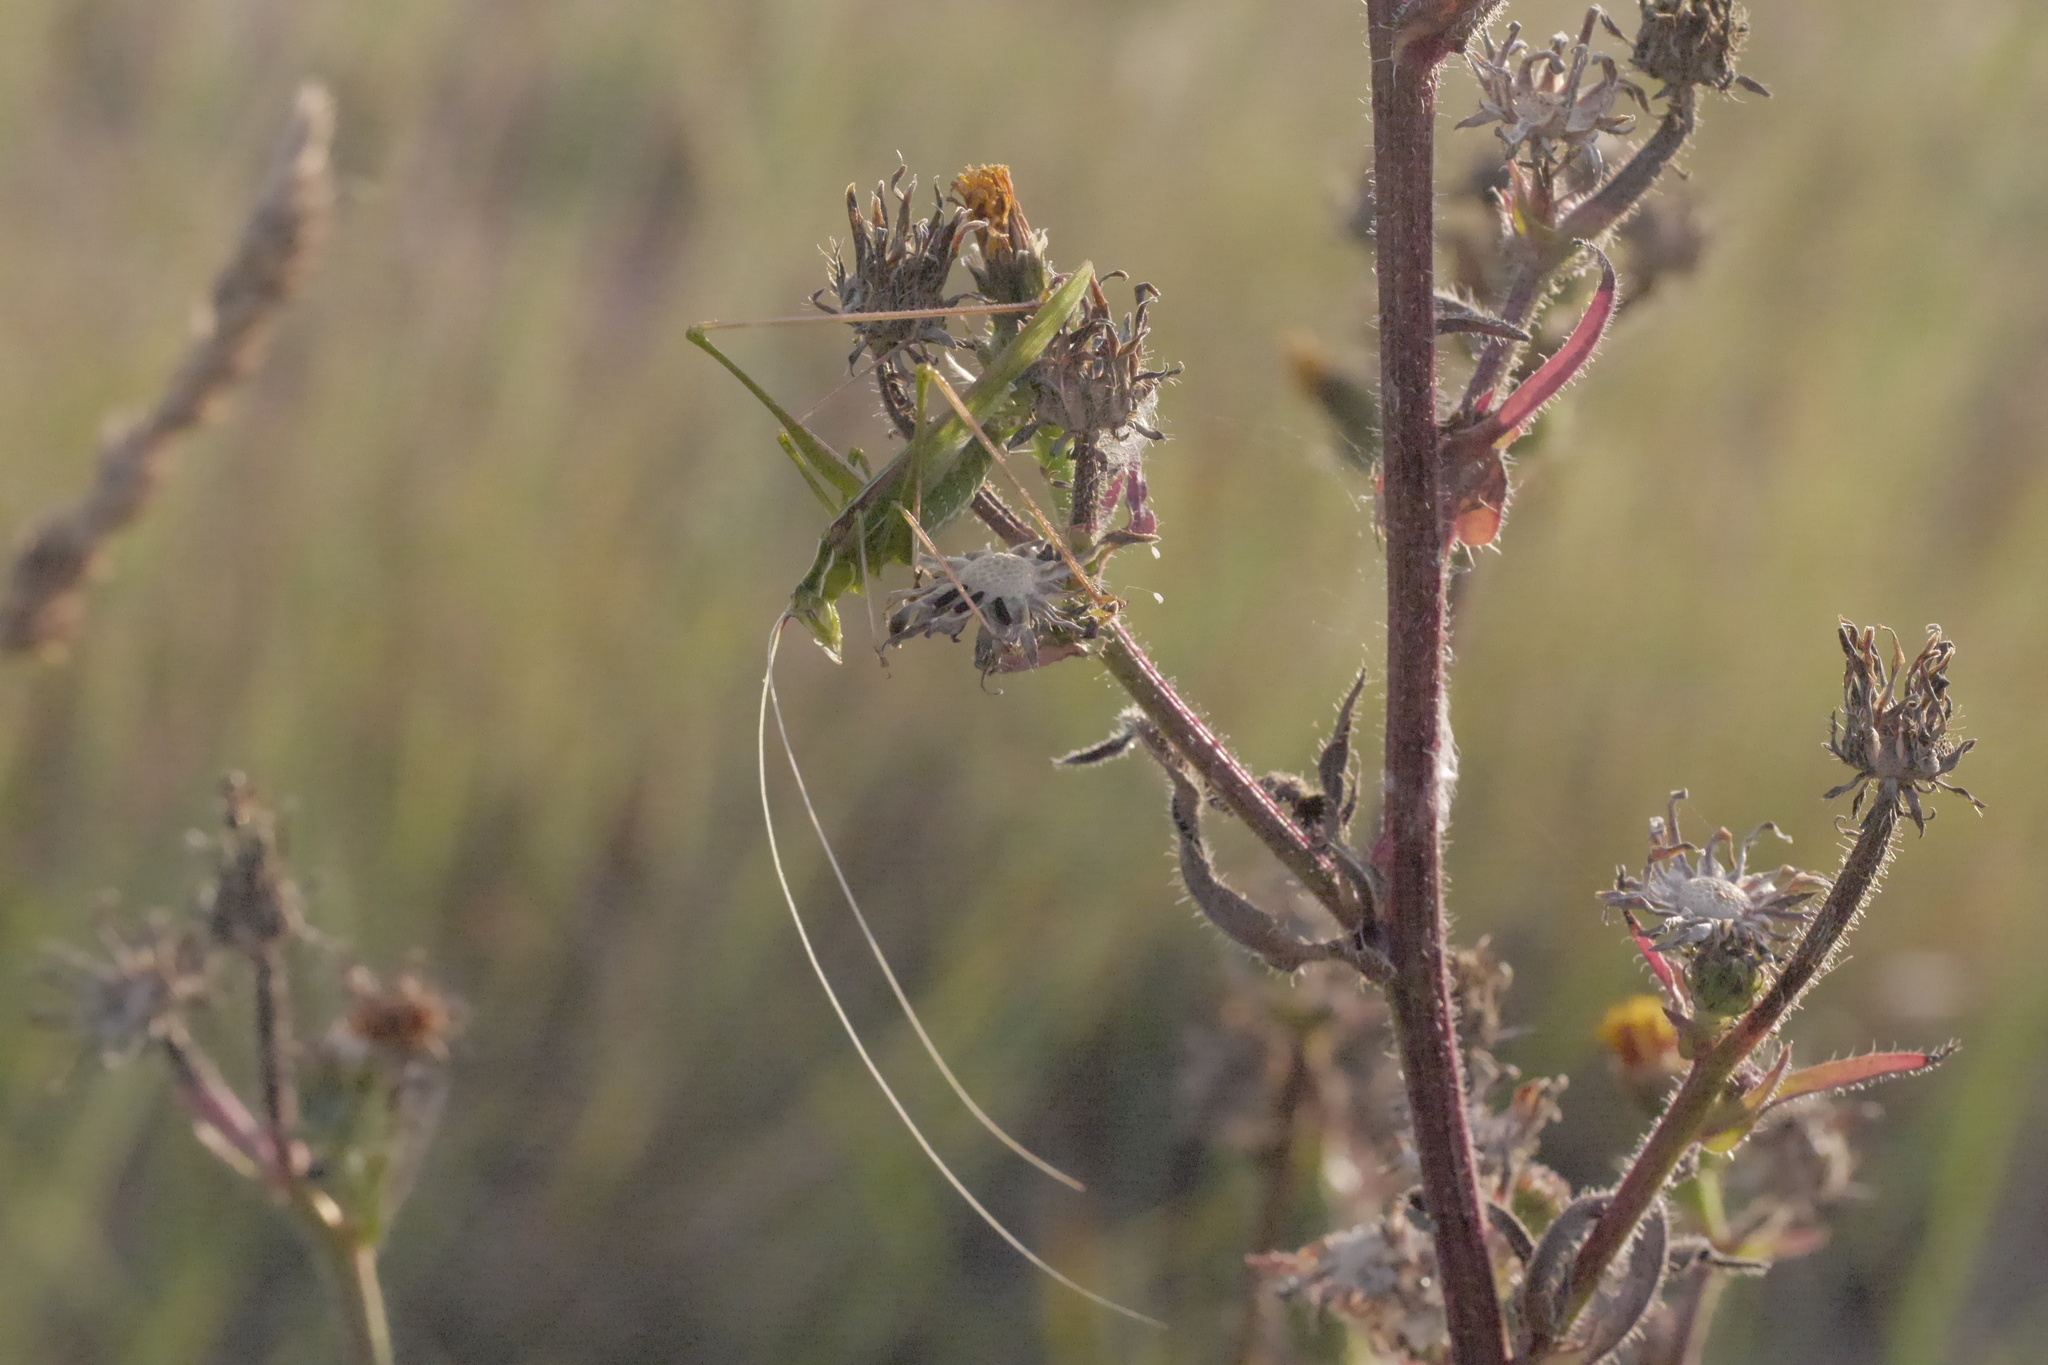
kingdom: Animalia
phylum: Arthropoda
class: Insecta
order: Orthoptera
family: Tettigoniidae
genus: Tylopsis
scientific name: Tylopsis lilifolia
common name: Lily bush-cricket
